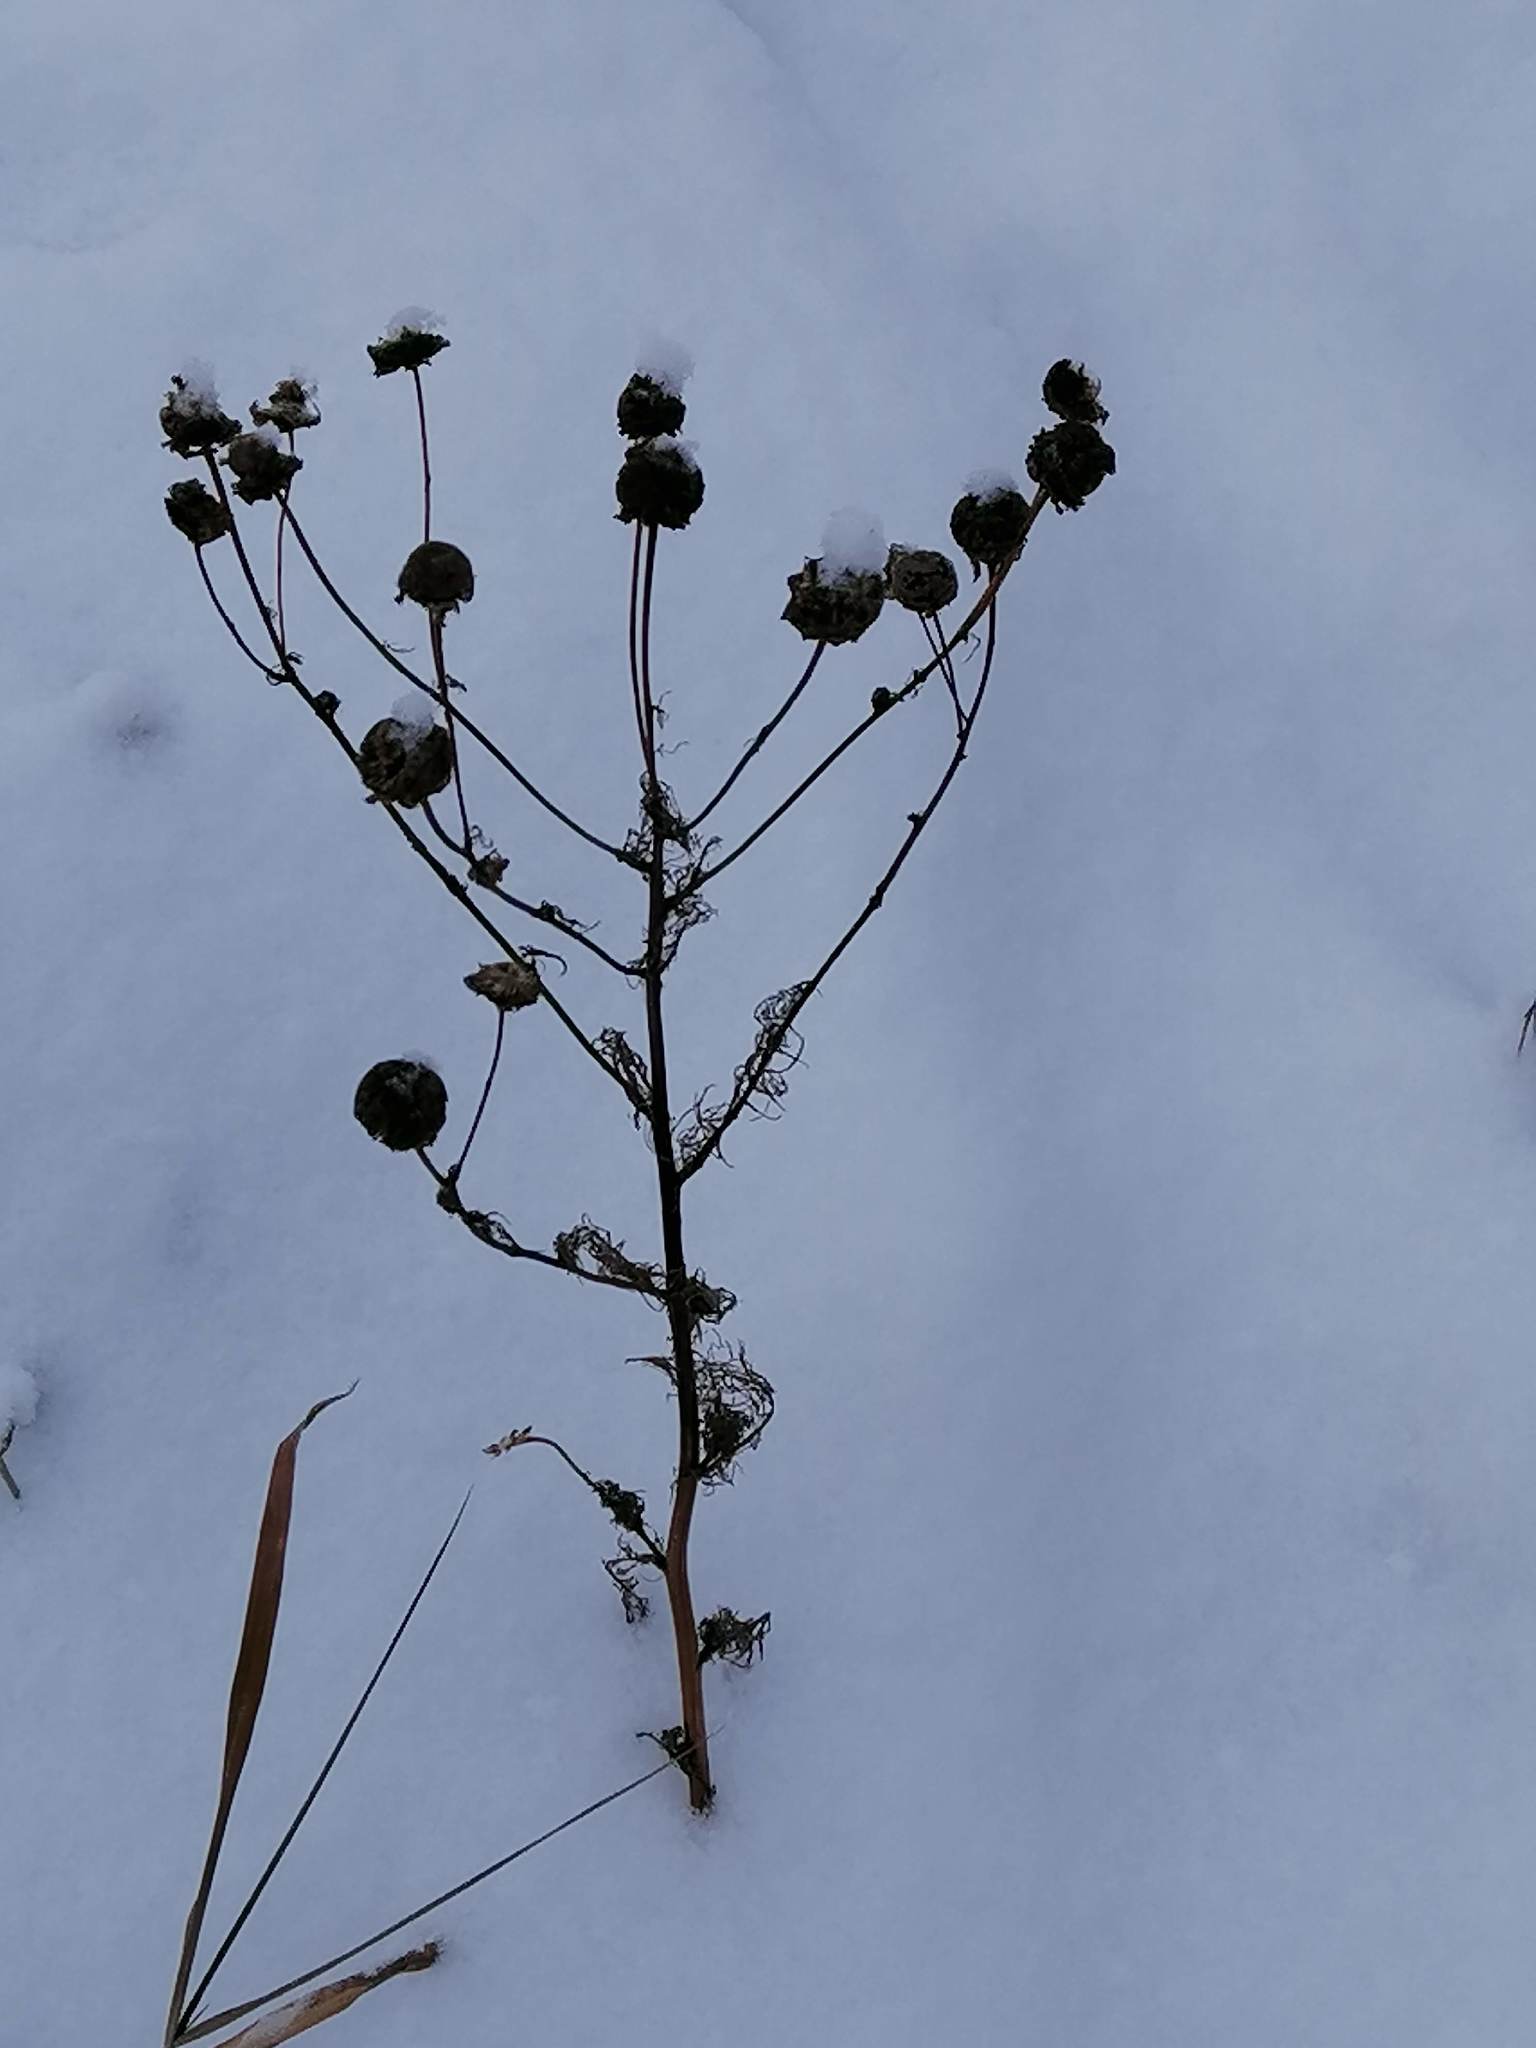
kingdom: Plantae
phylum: Tracheophyta
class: Magnoliopsida
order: Asterales
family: Asteraceae
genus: Tripleurospermum
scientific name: Tripleurospermum inodorum
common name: Scentless mayweed
